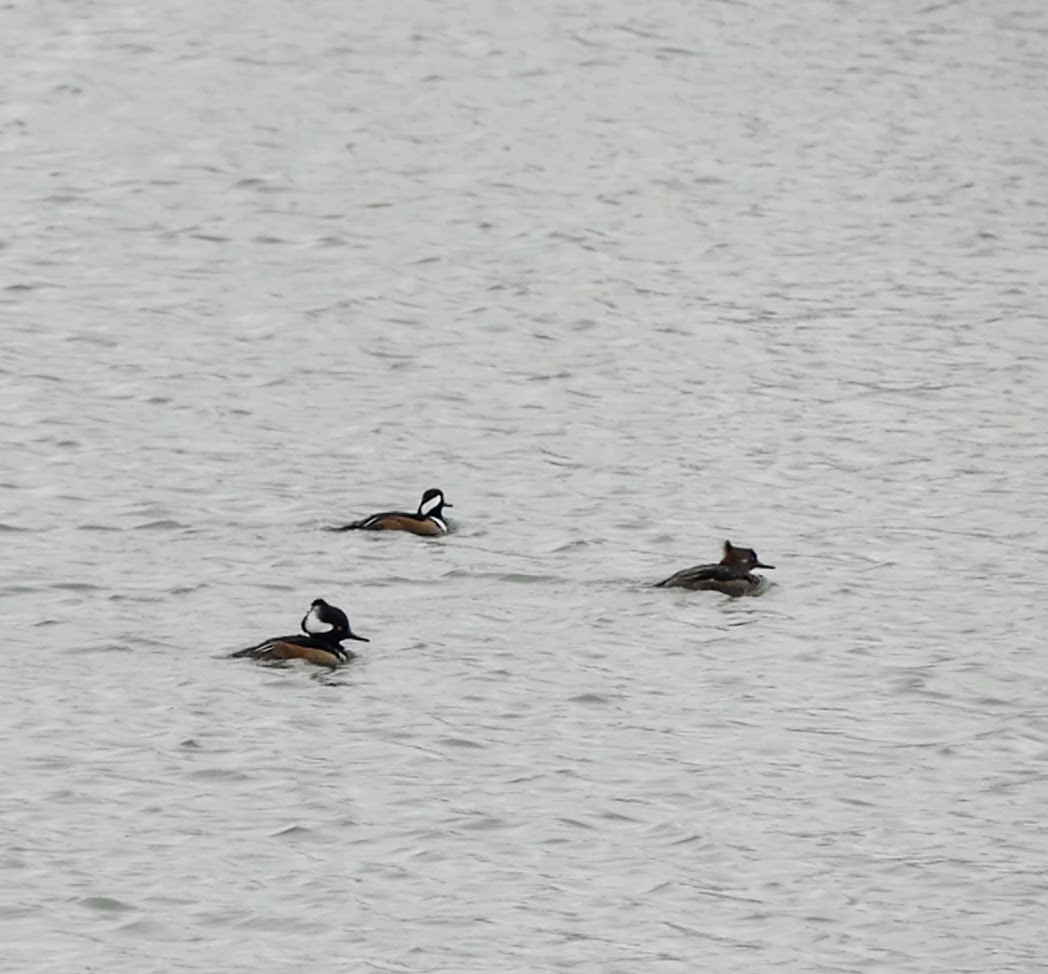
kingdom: Animalia
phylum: Chordata
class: Aves
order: Anseriformes
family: Anatidae
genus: Lophodytes
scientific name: Lophodytes cucullatus
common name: Hooded merganser
